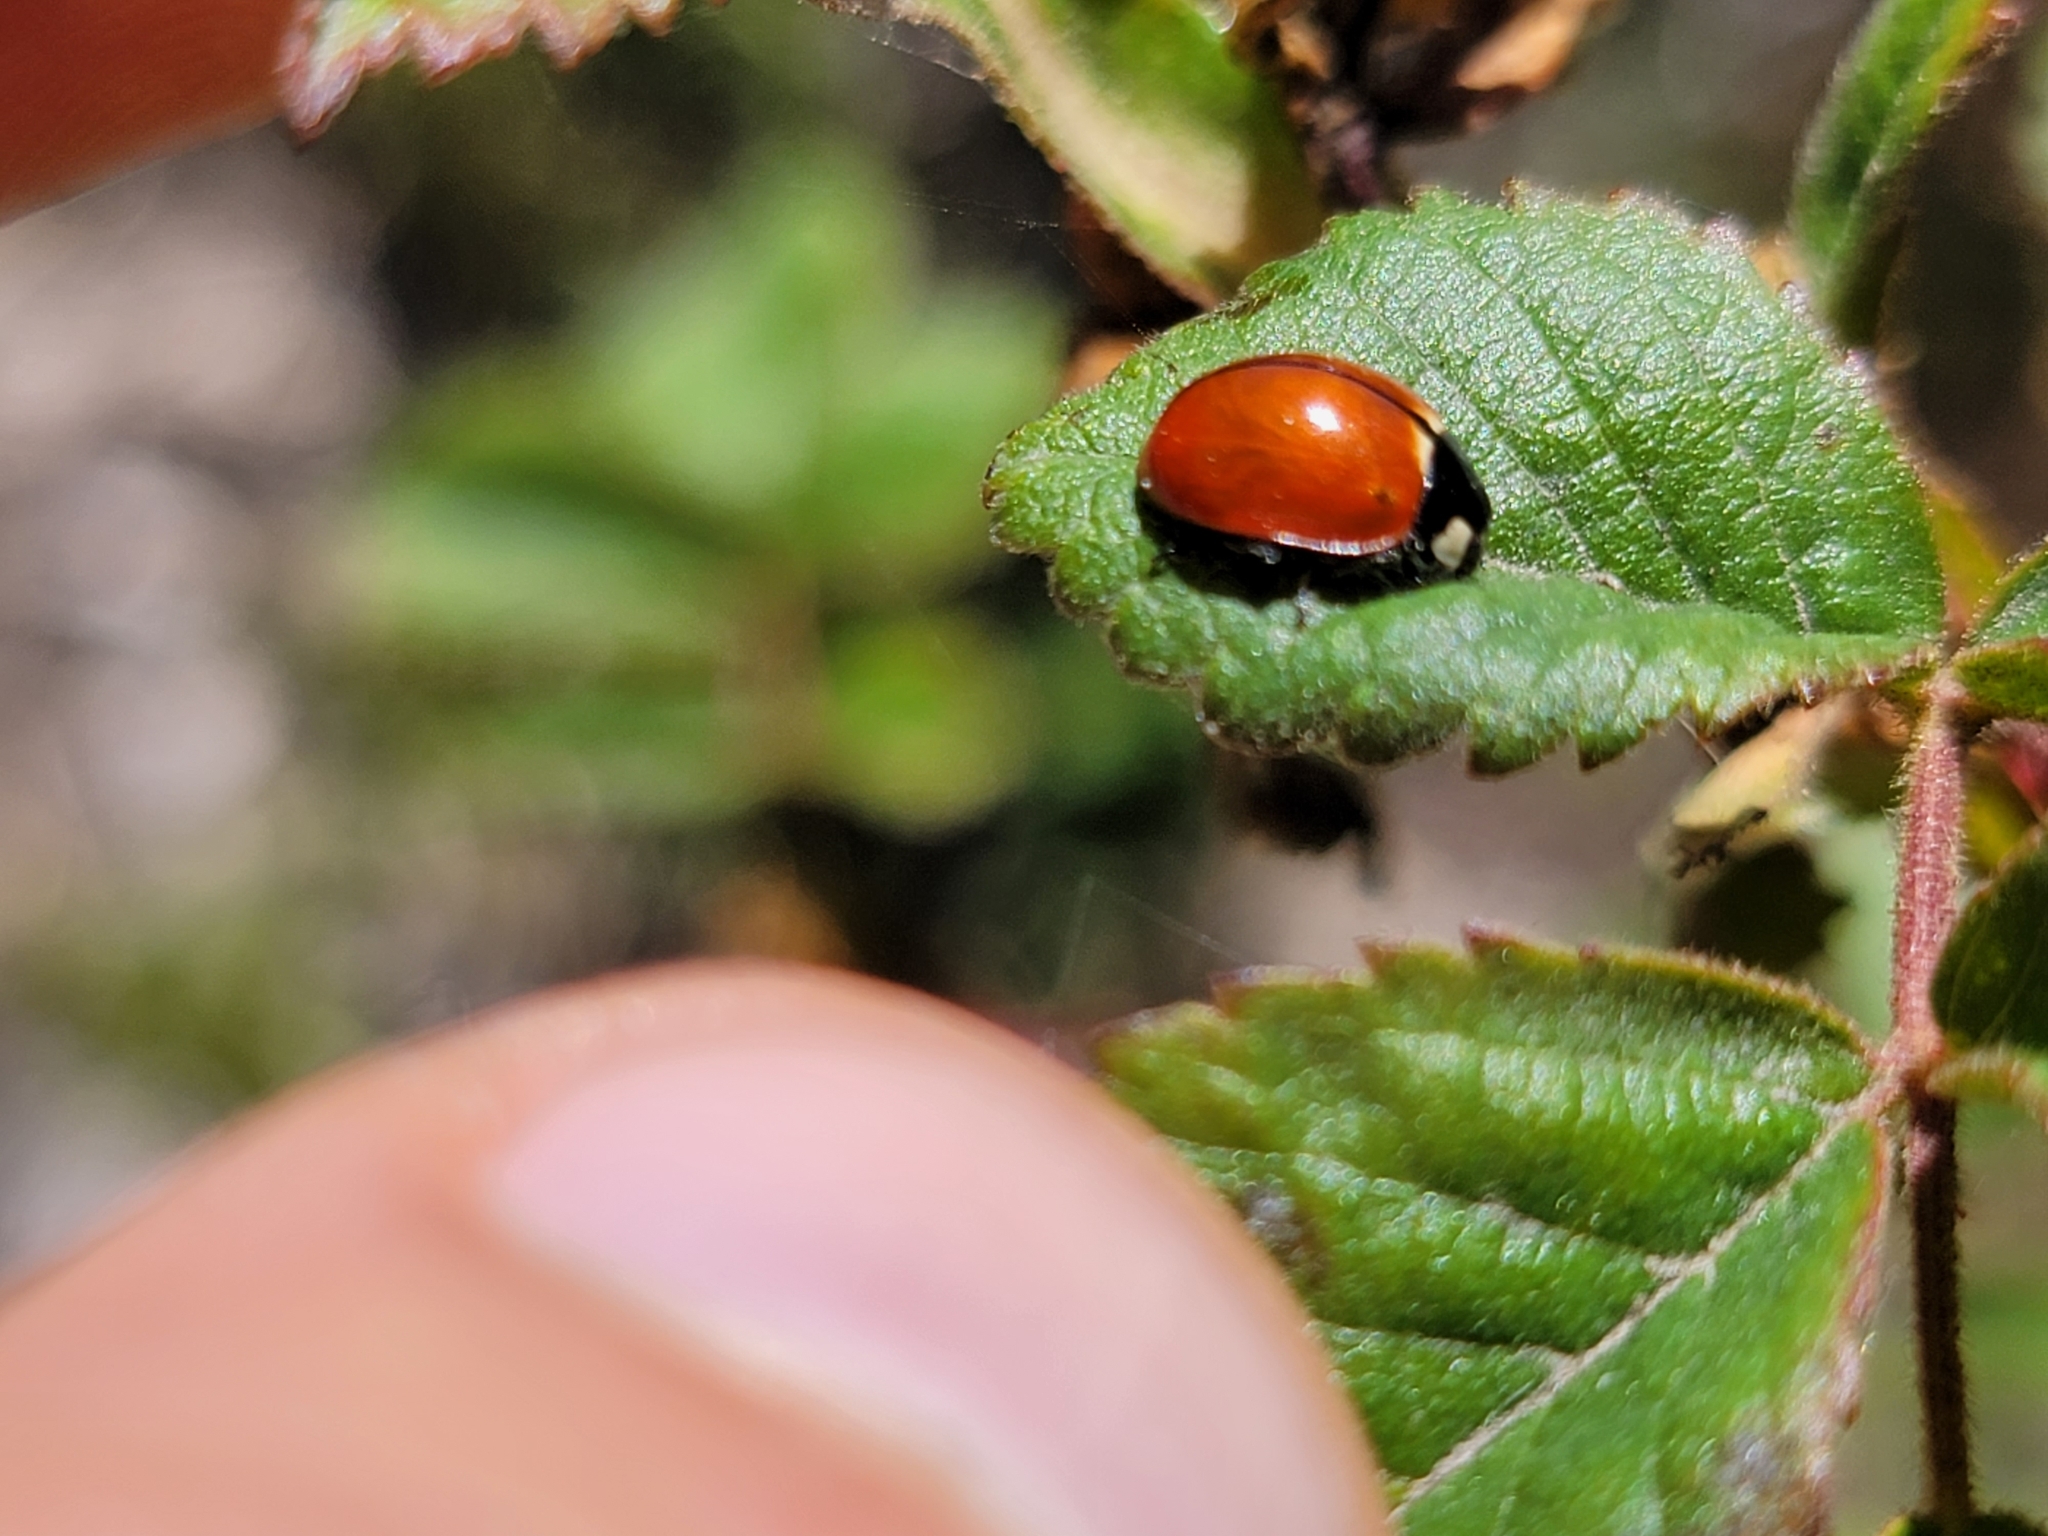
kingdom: Animalia
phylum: Arthropoda
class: Insecta
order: Coleoptera
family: Coccinellidae
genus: Coccinella
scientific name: Coccinella californica
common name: Lady beetle
